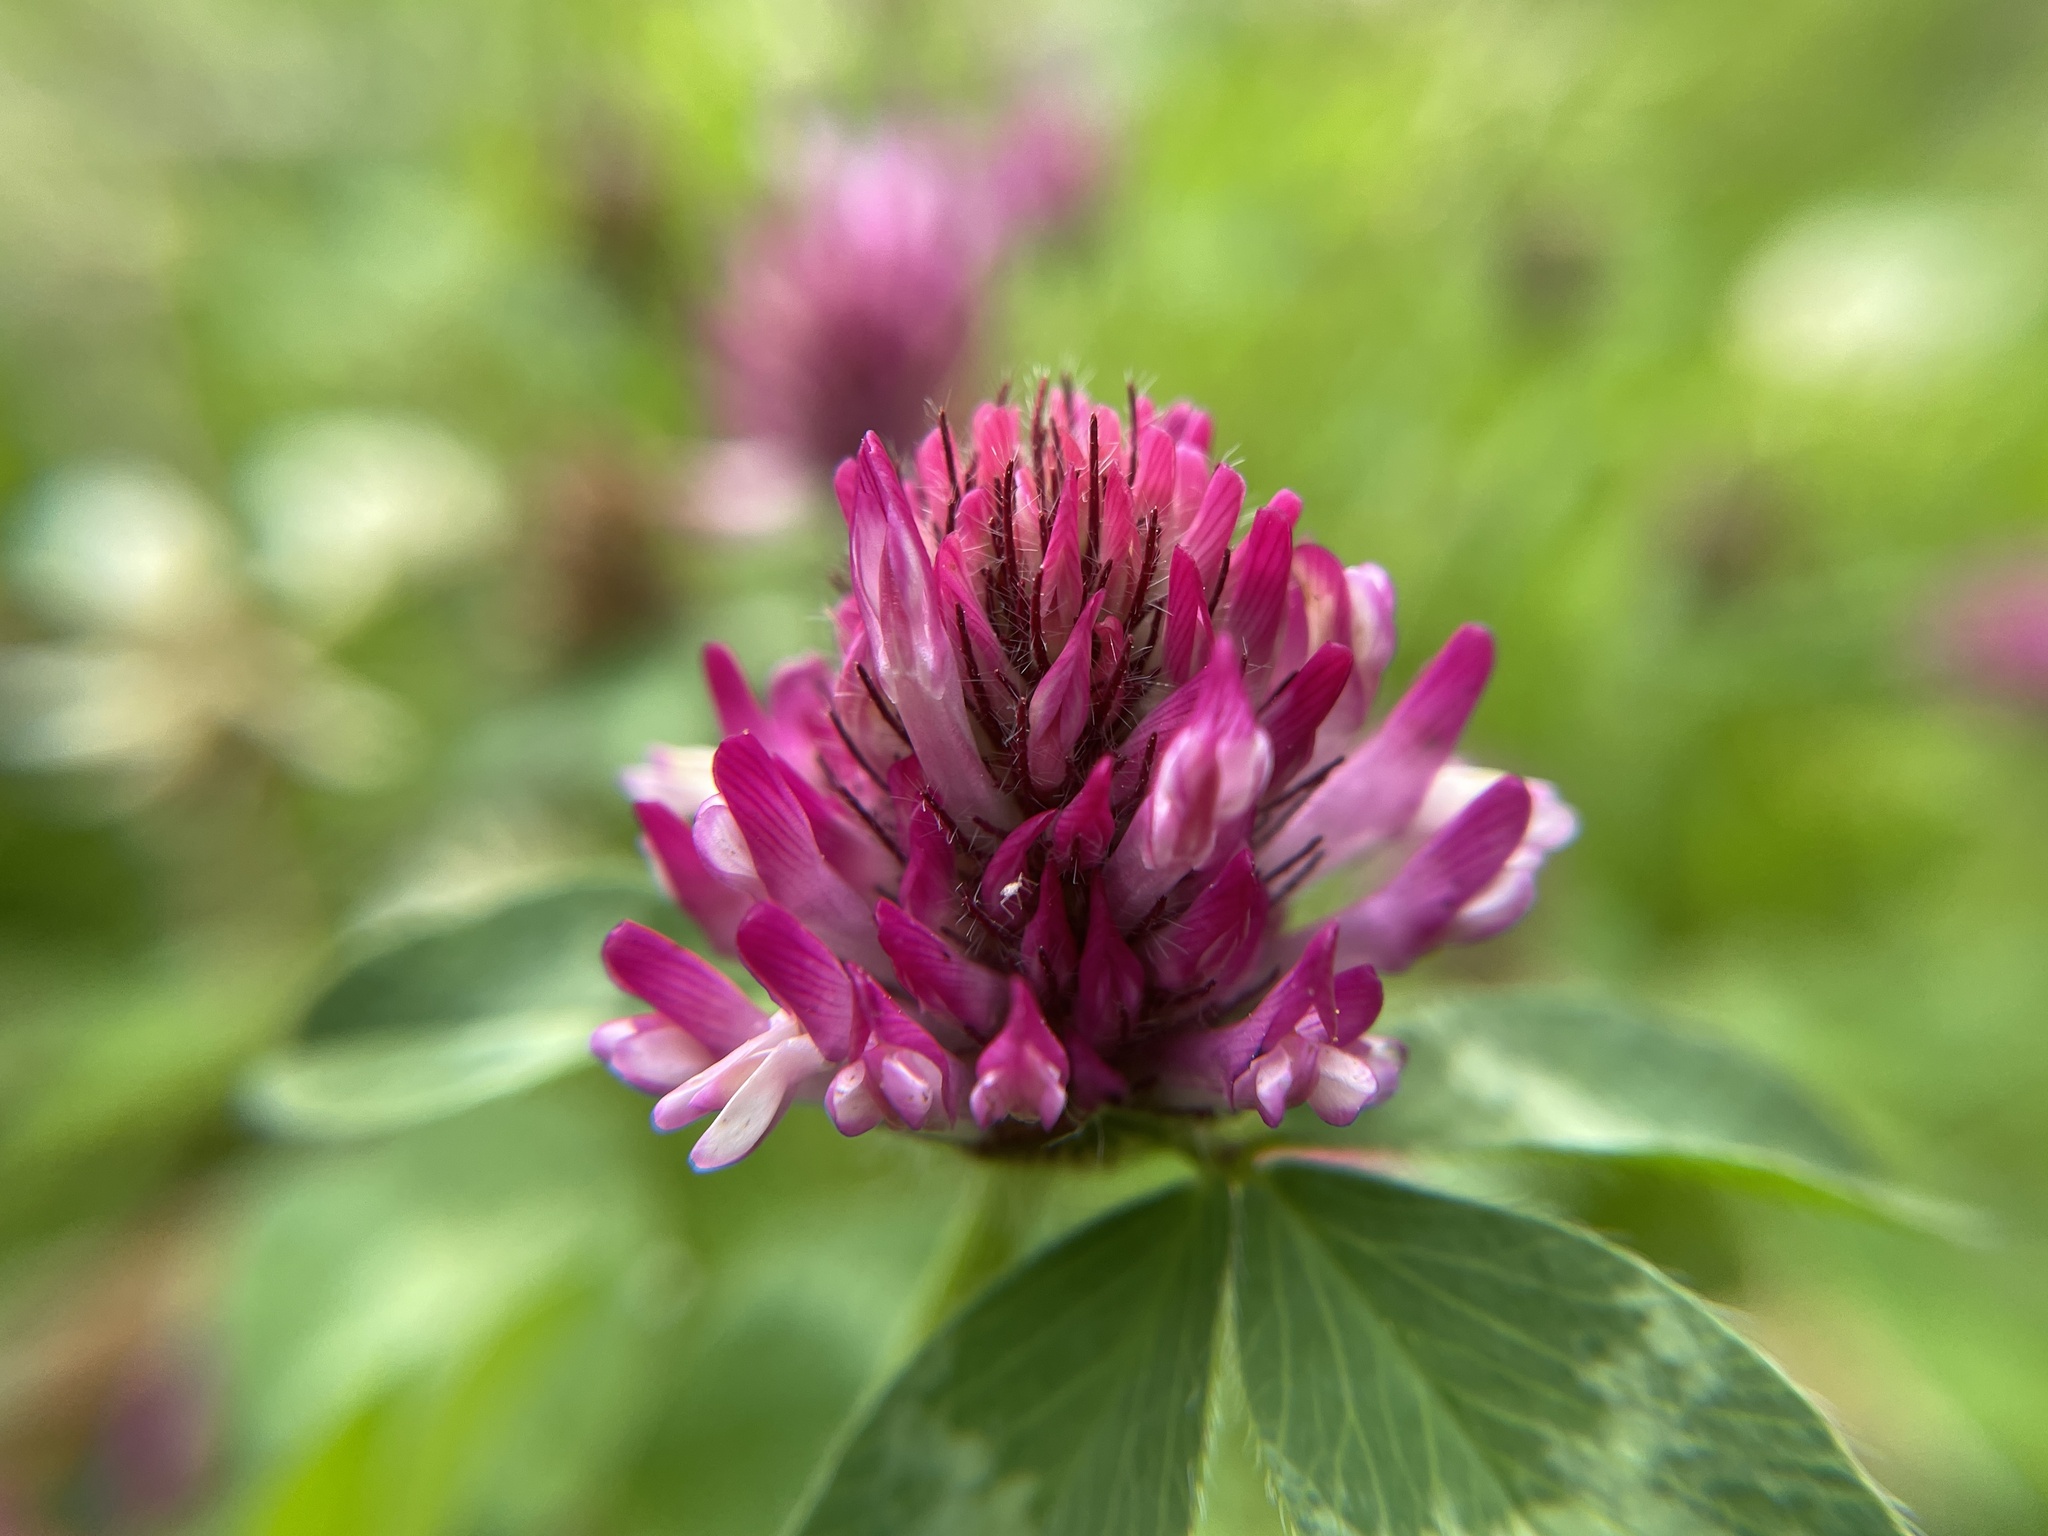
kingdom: Plantae
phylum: Tracheophyta
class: Magnoliopsida
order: Fabales
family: Fabaceae
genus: Trifolium
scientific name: Trifolium pratense
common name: Red clover
